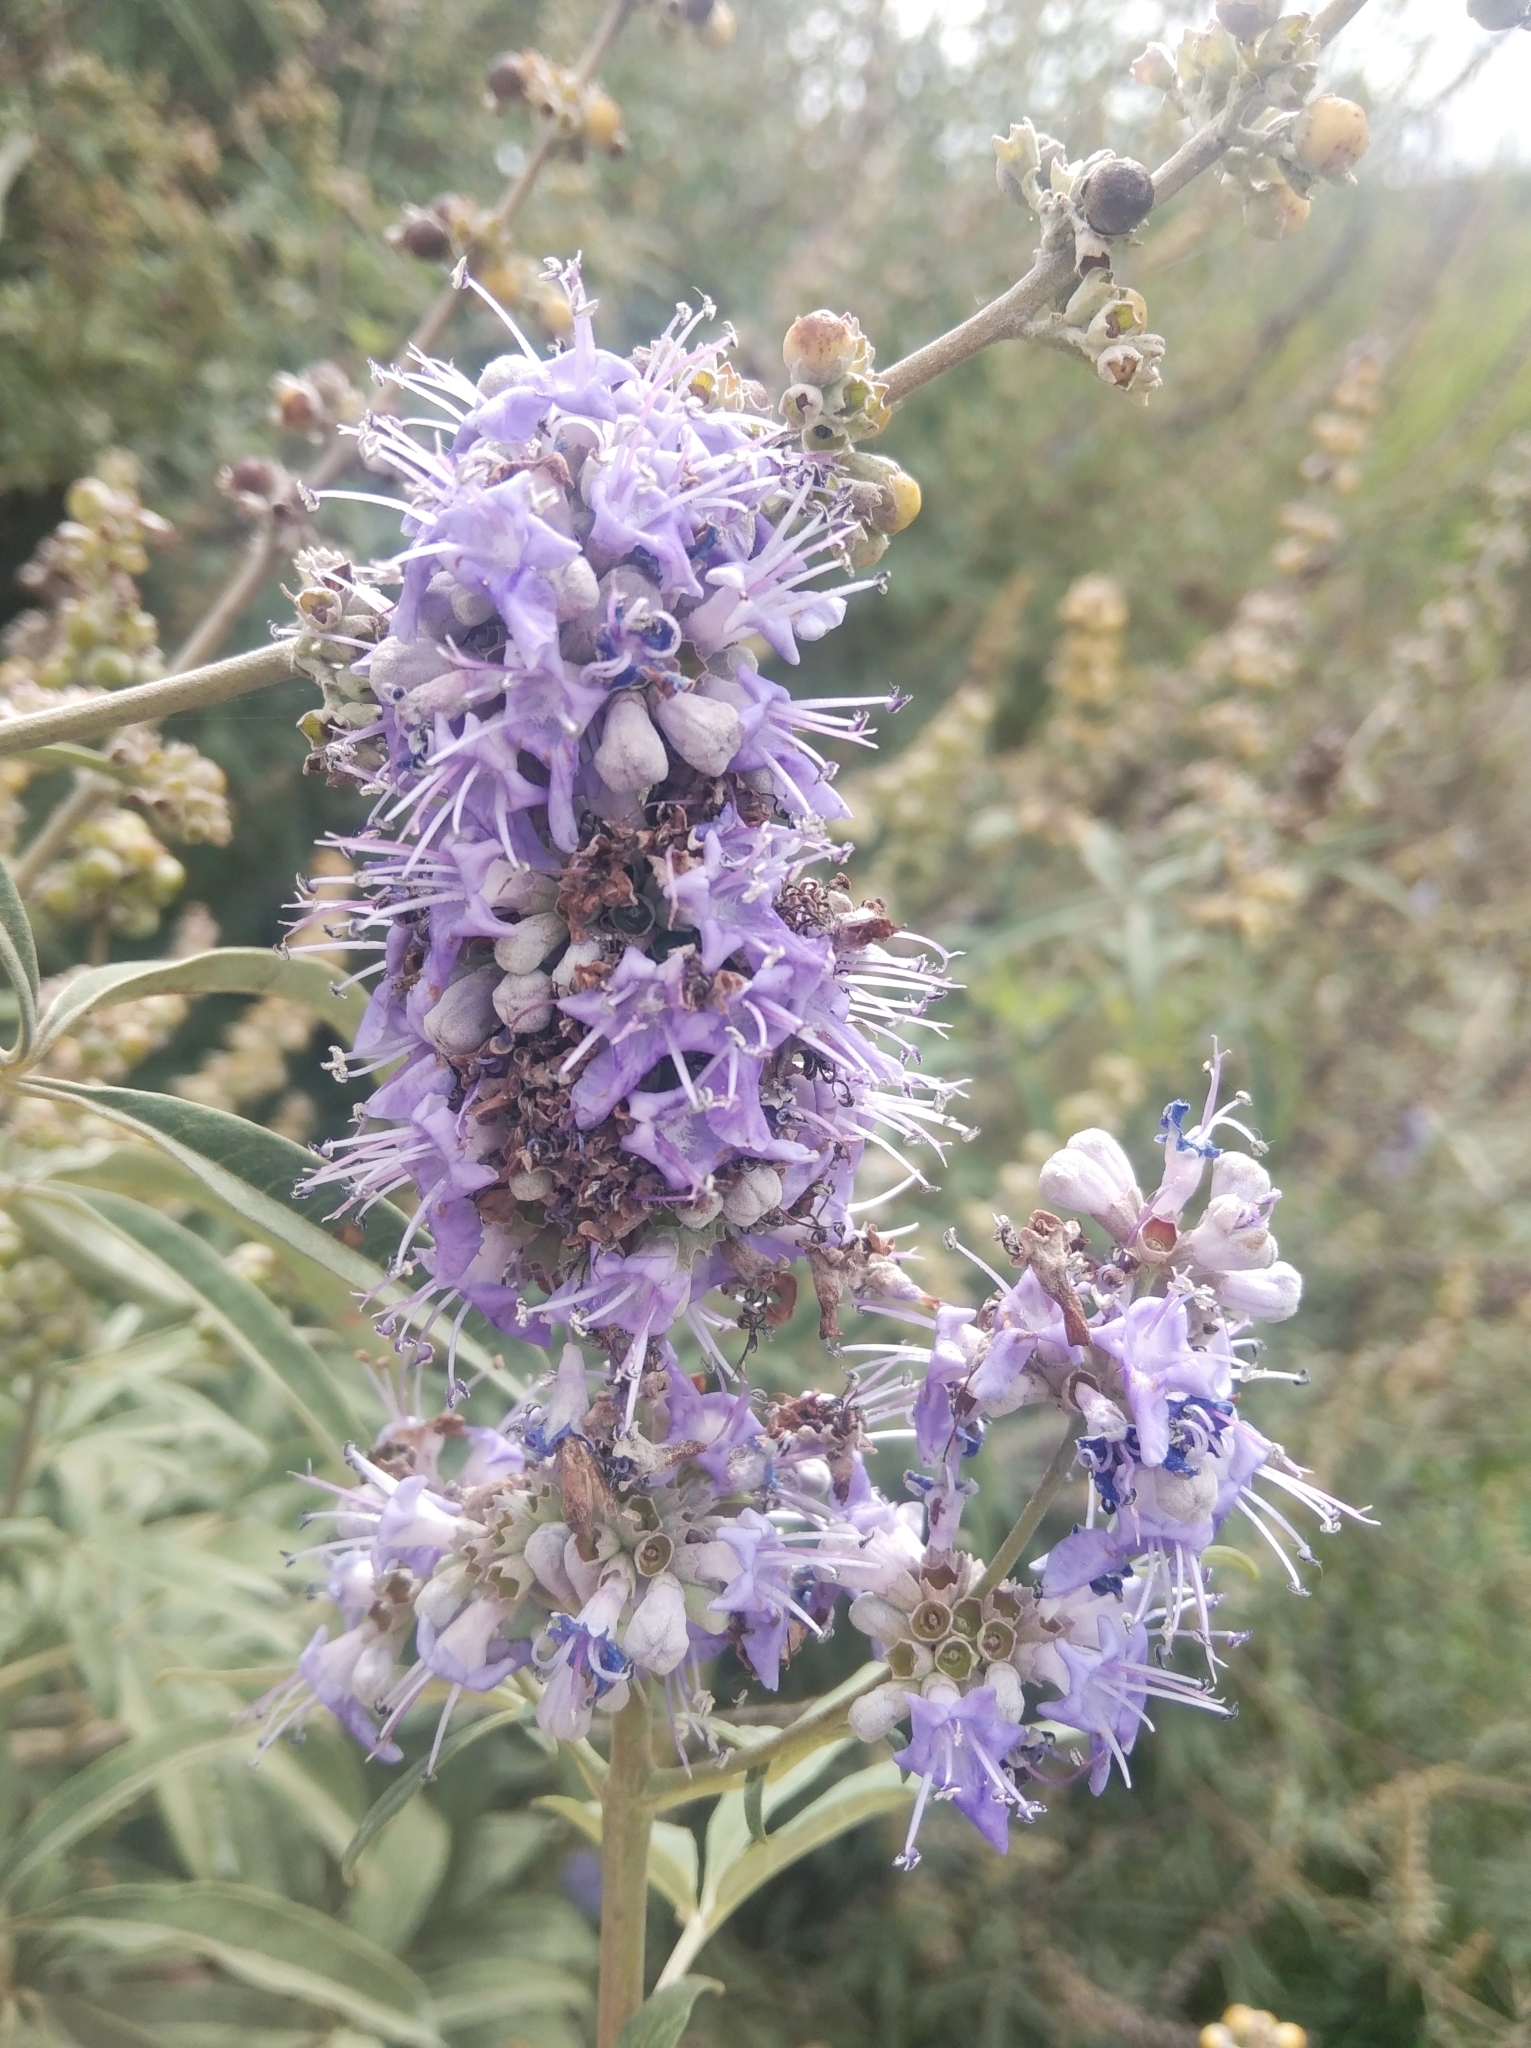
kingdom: Plantae
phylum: Tracheophyta
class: Magnoliopsida
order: Lamiales
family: Lamiaceae
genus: Vitex
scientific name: Vitex agnus-castus
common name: Chasteberry
